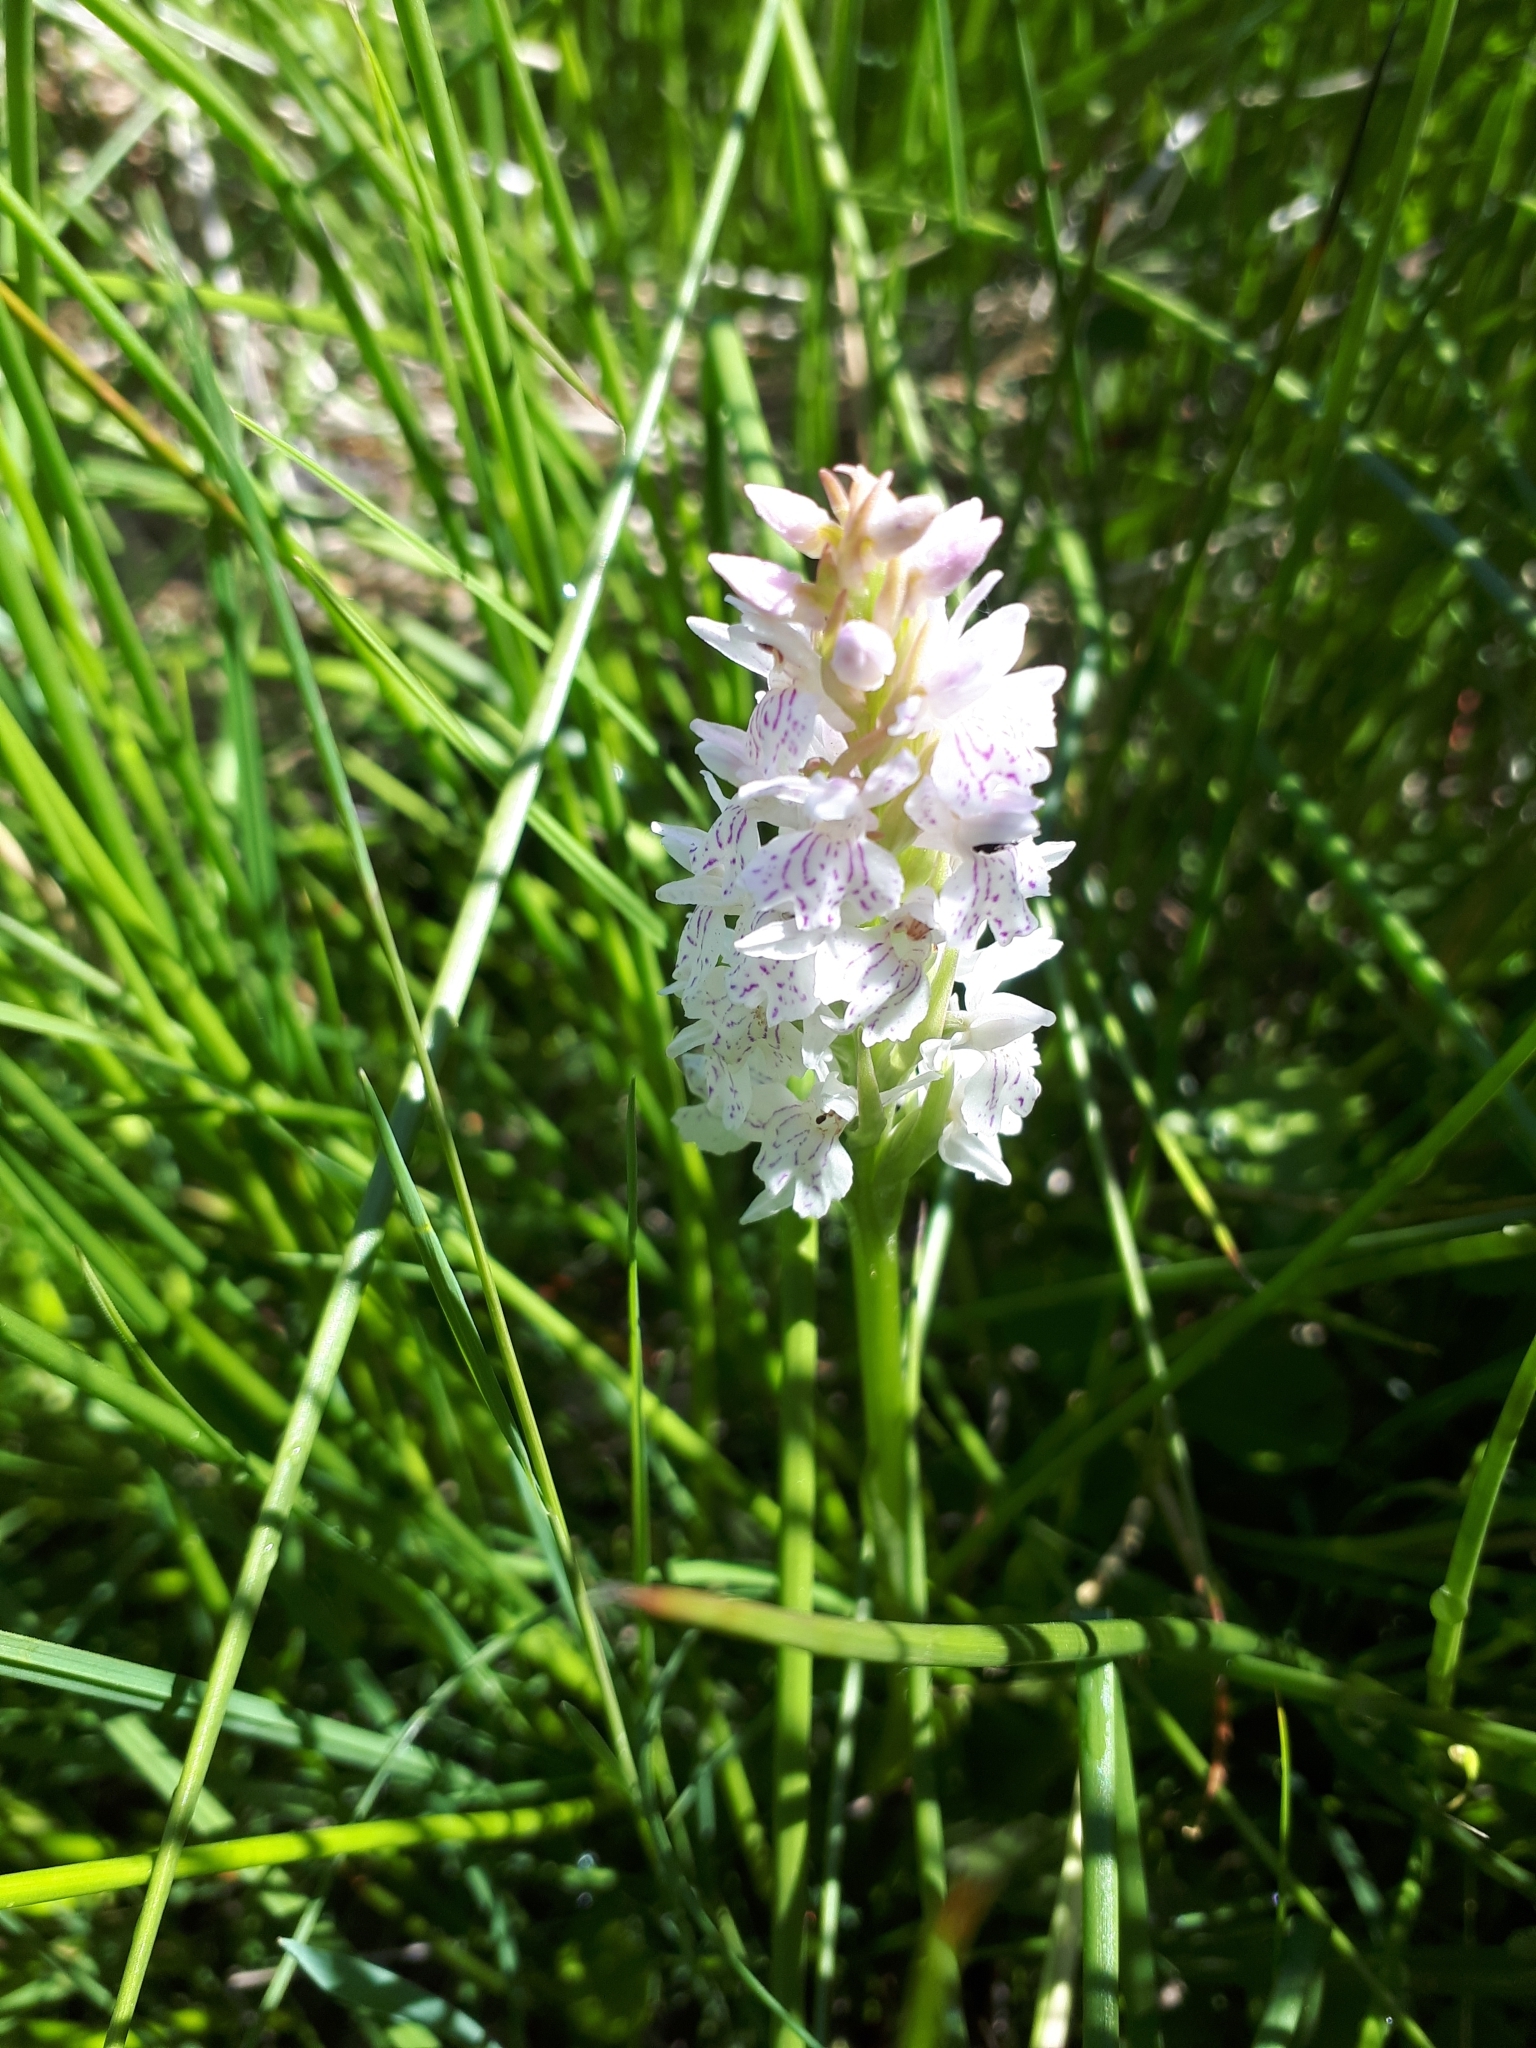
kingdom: Plantae
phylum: Tracheophyta
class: Liliopsida
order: Asparagales
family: Orchidaceae
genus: Dactylorhiza
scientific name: Dactylorhiza maculata
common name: Heath spotted-orchid
